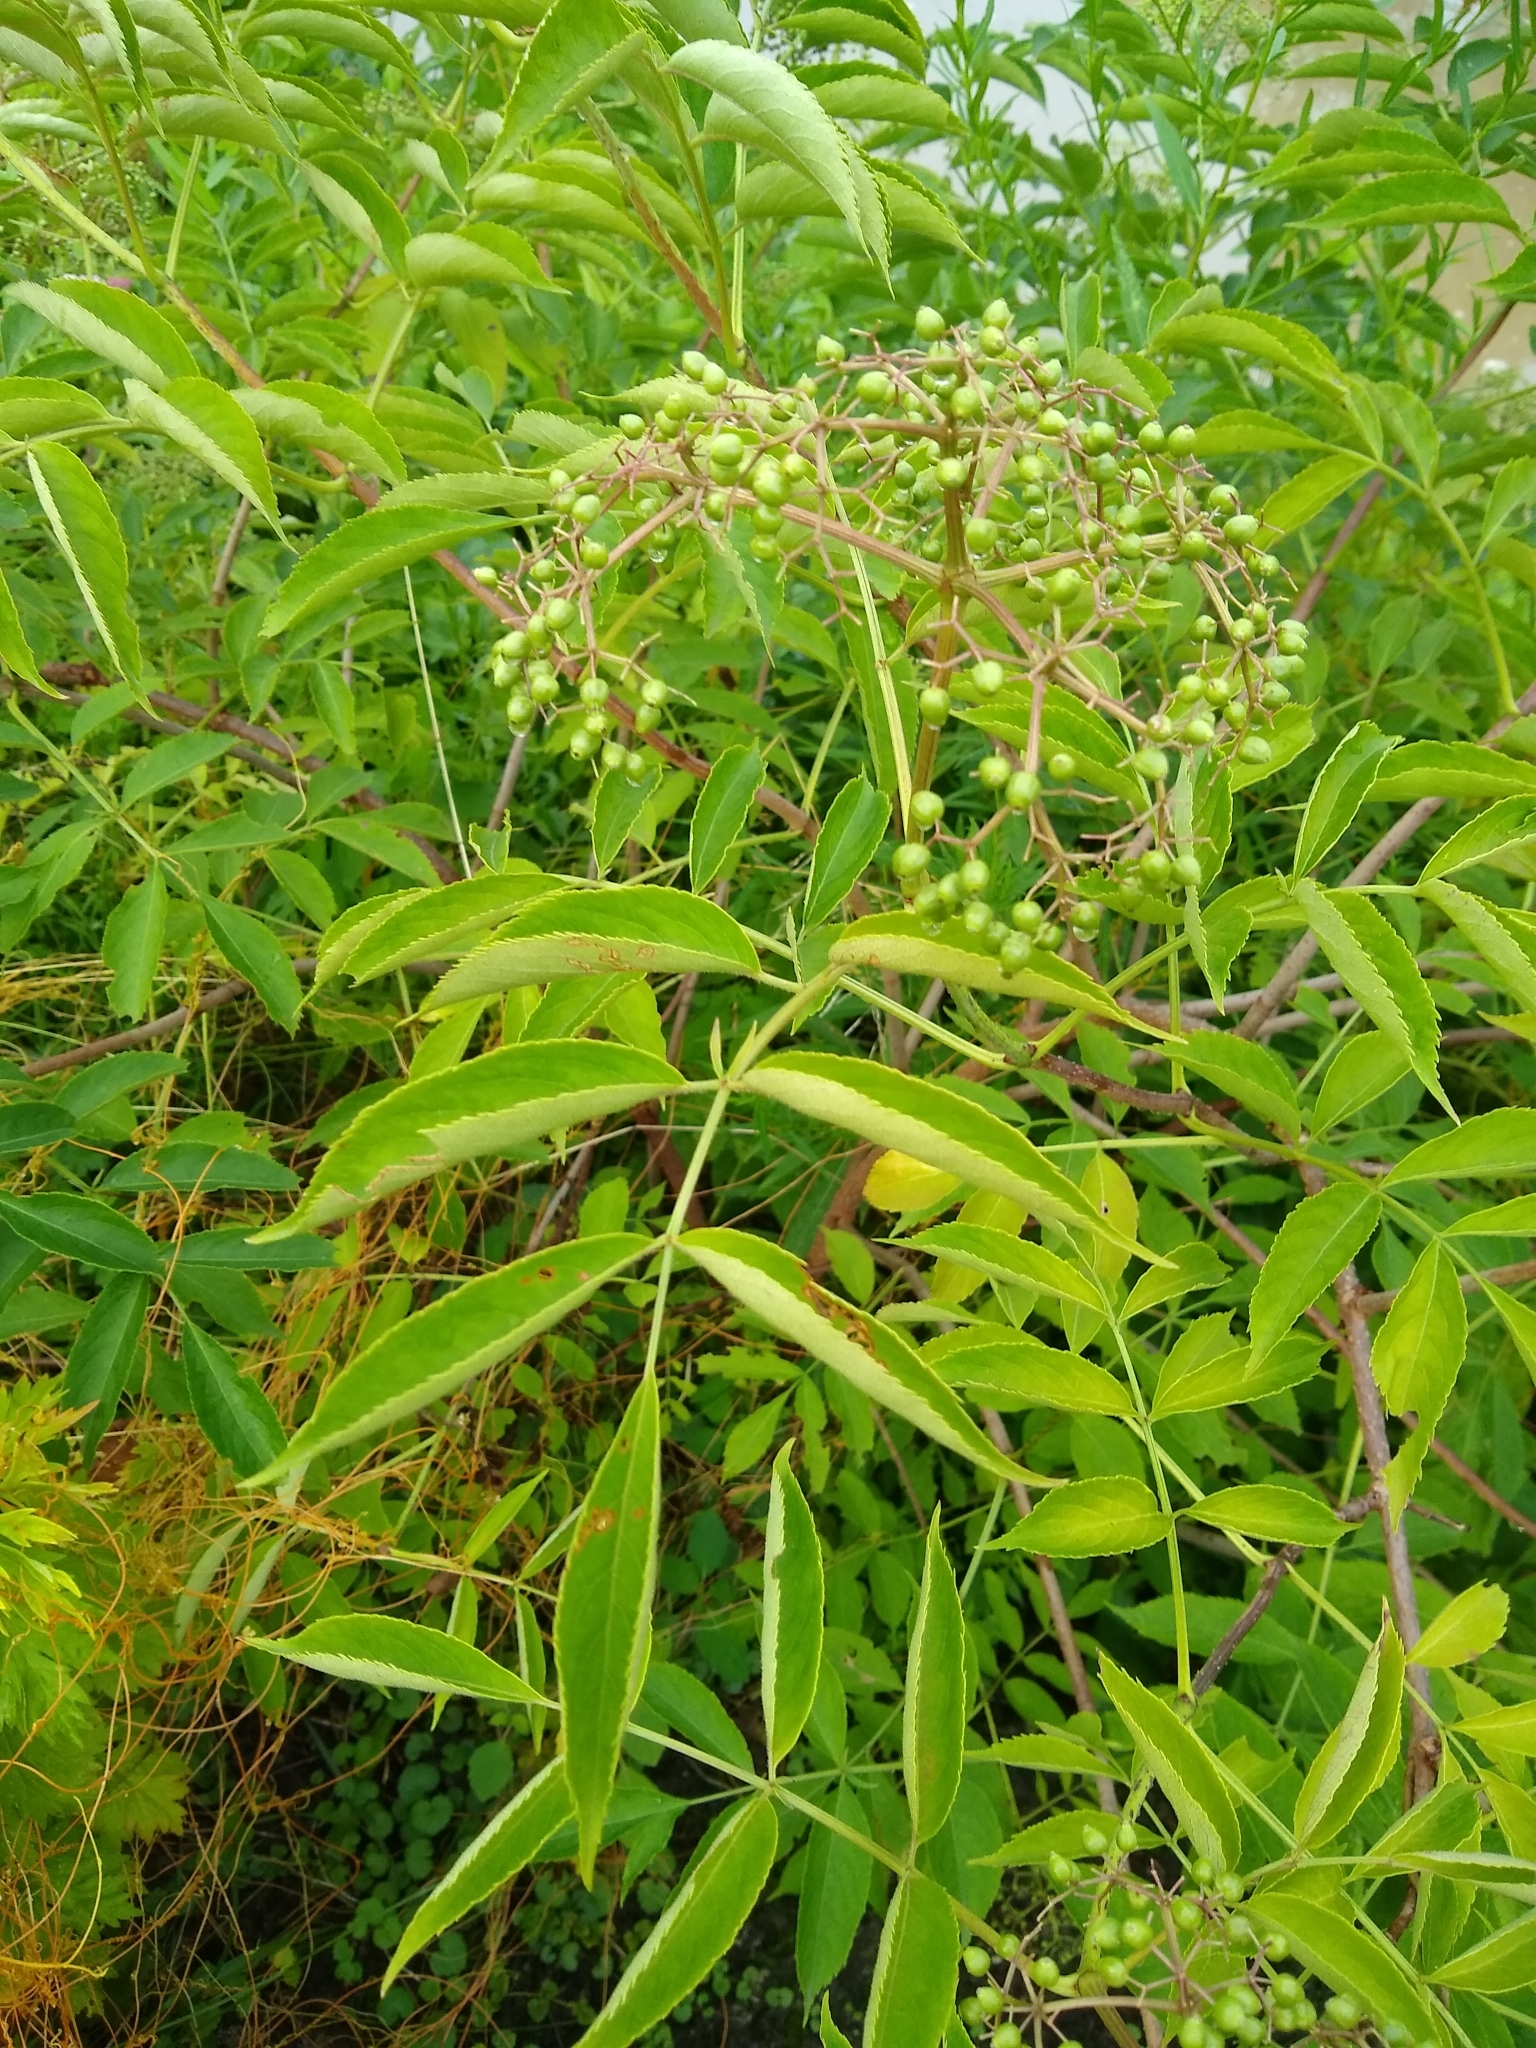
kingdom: Plantae
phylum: Tracheophyta
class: Magnoliopsida
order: Dipsacales
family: Viburnaceae
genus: Sambucus
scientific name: Sambucus canadensis
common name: American elder
